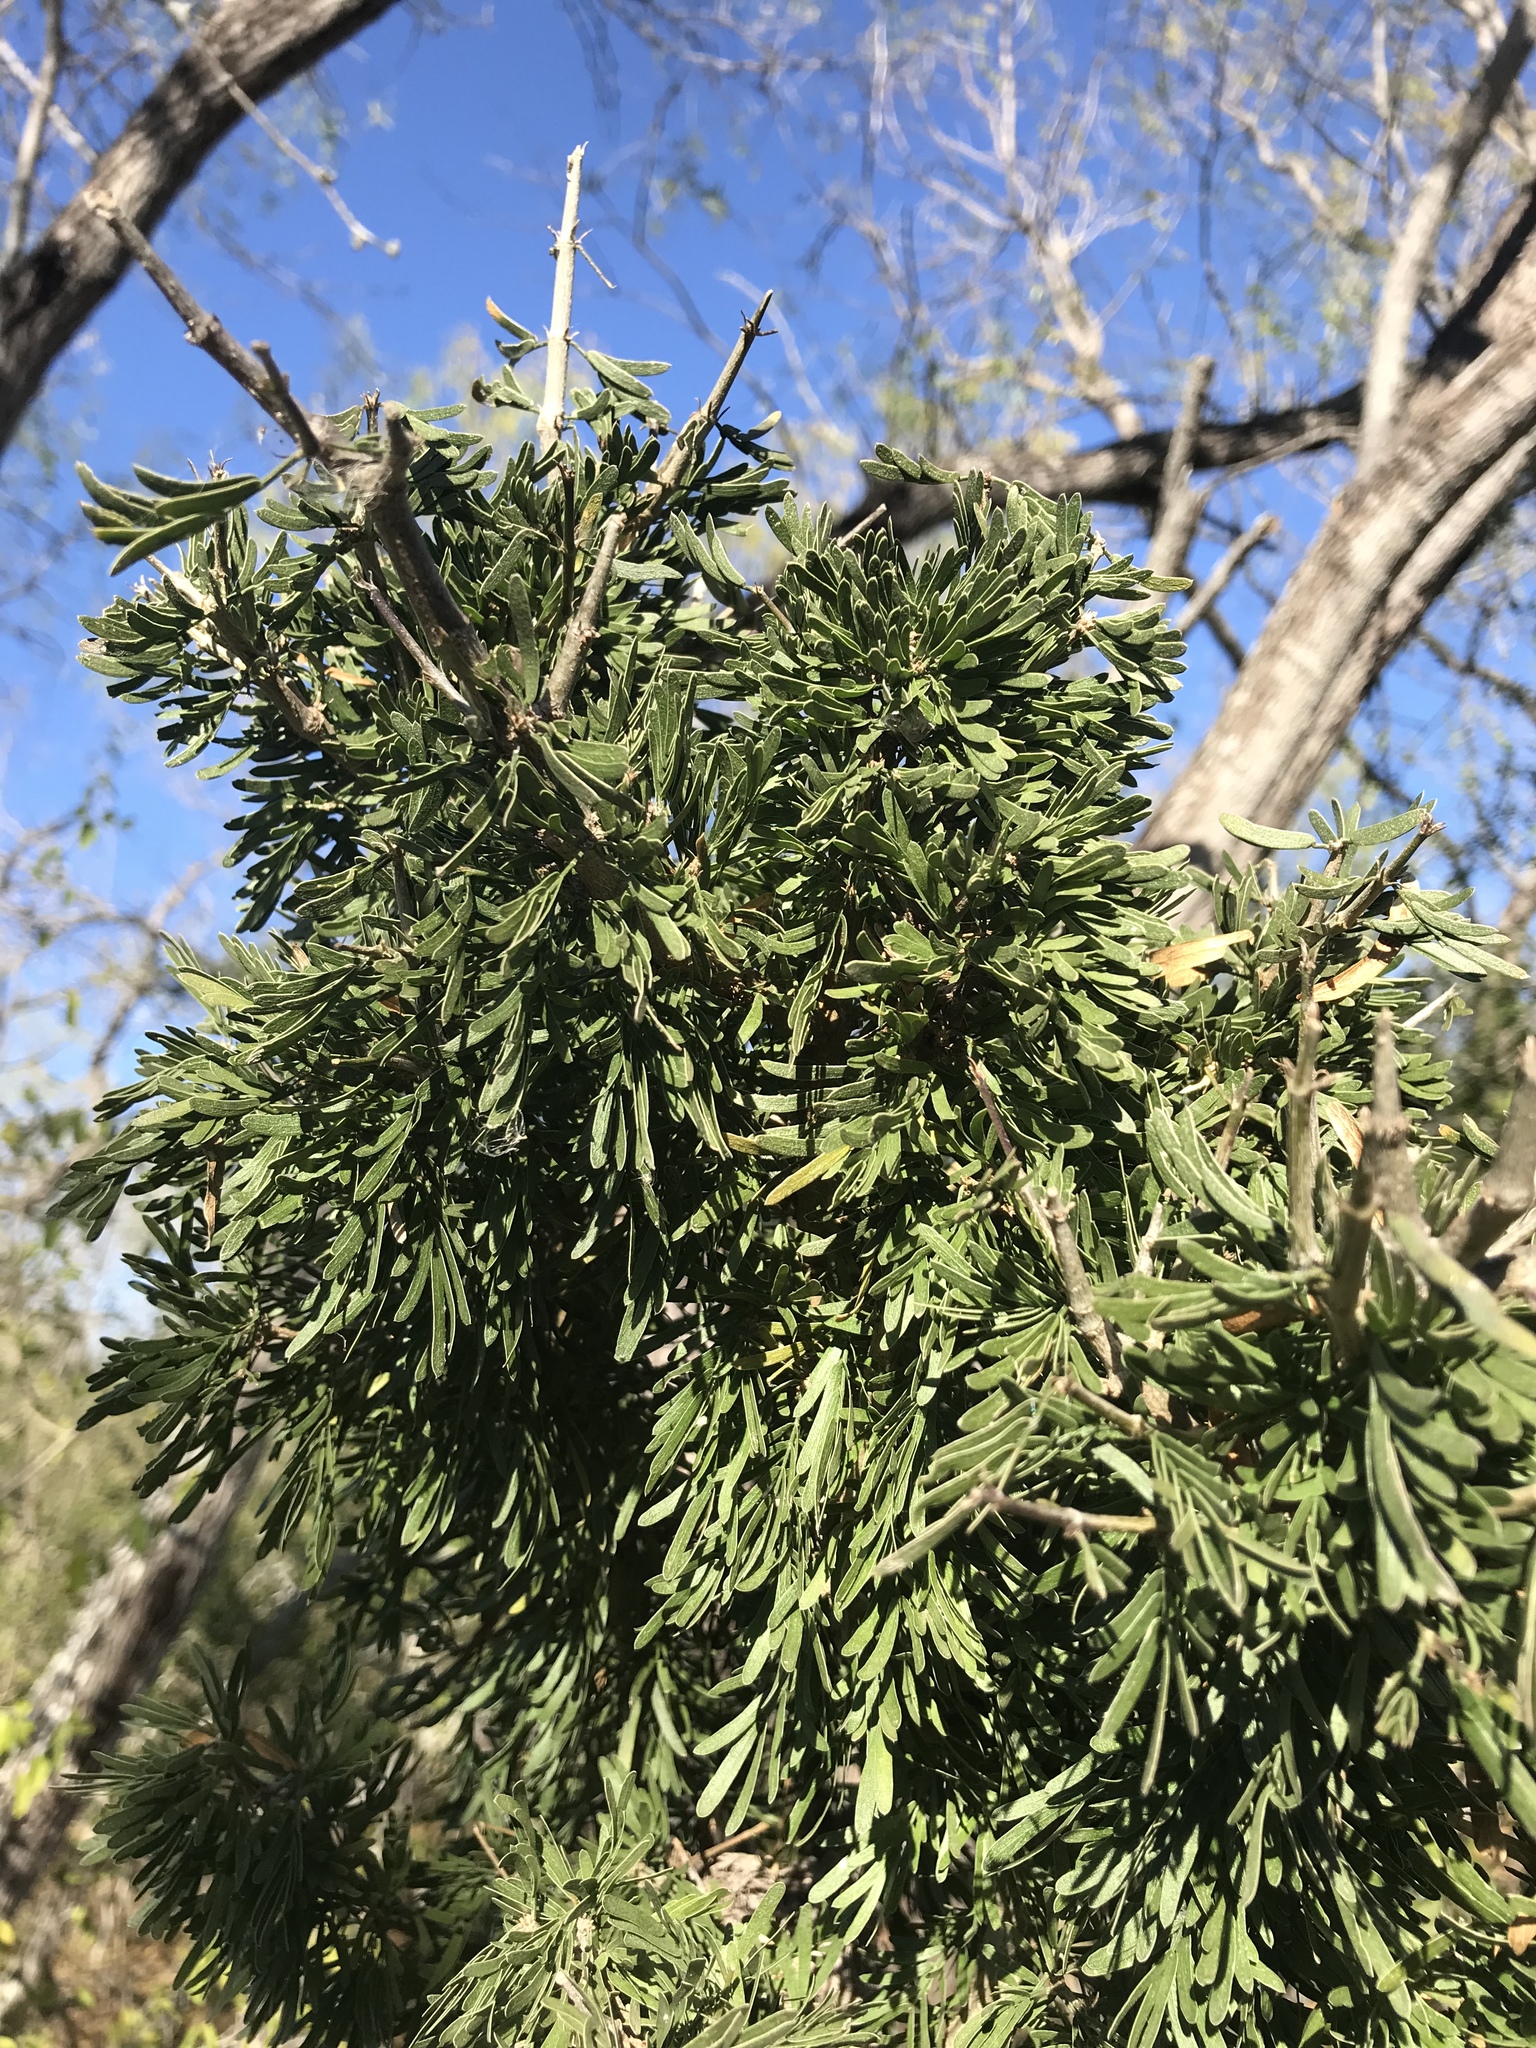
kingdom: Plantae
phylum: Tracheophyta
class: Magnoliopsida
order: Zygophyllales
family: Zygophyllaceae
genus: Porlieria
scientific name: Porlieria angustifolia
